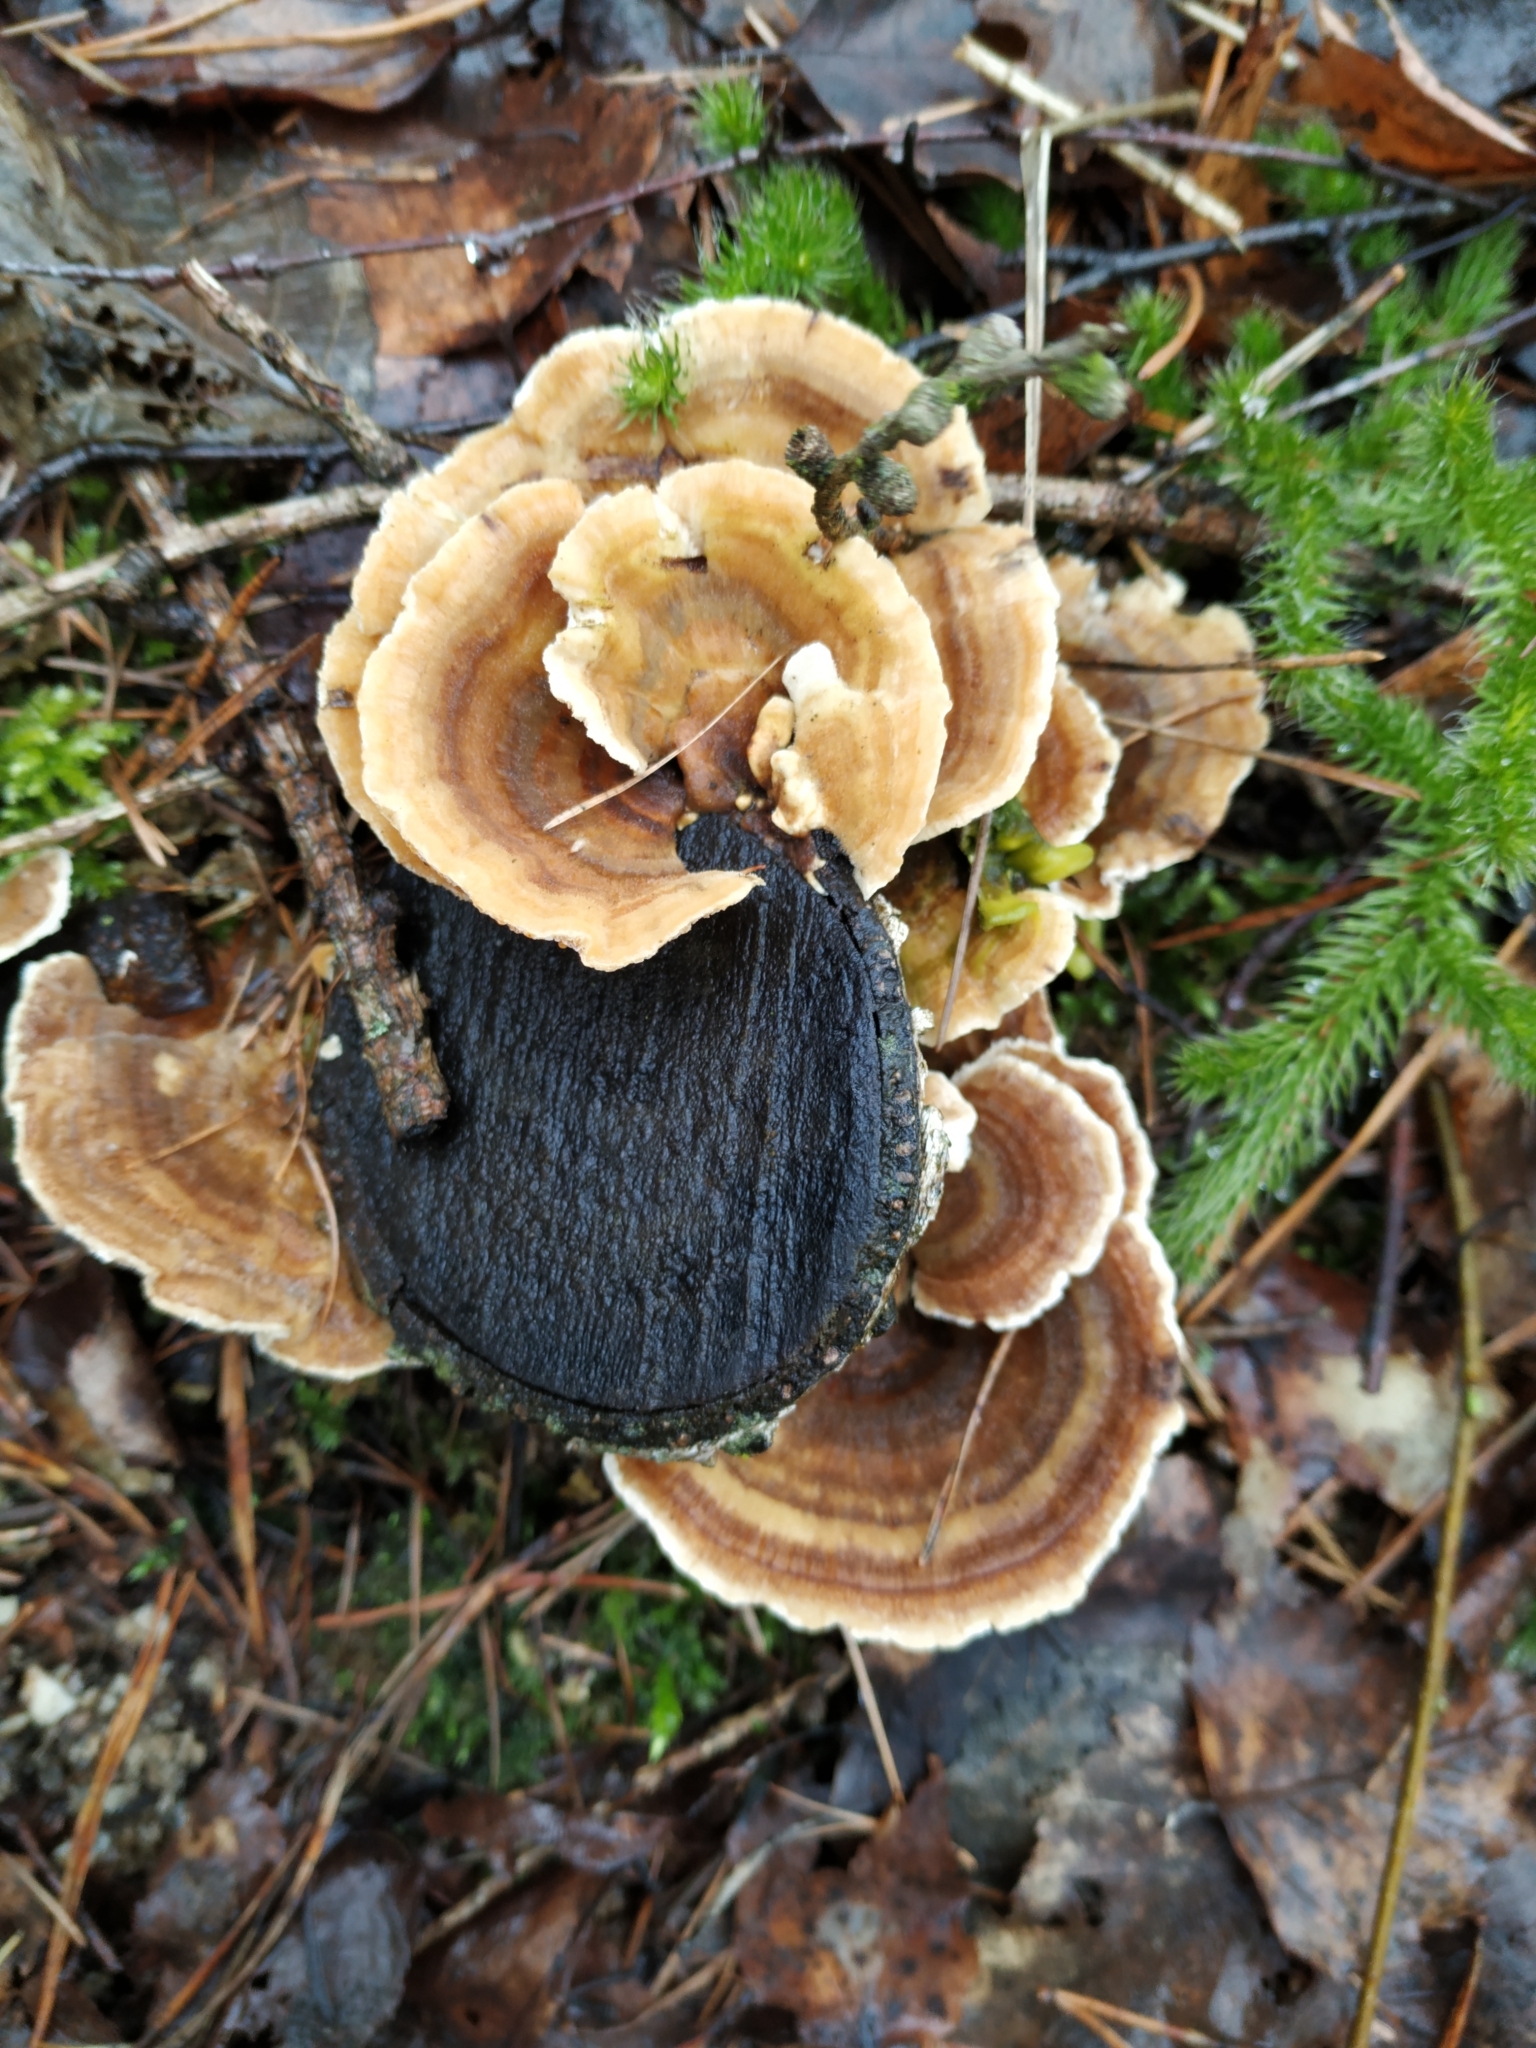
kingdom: Fungi
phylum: Basidiomycota
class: Agaricomycetes
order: Polyporales
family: Polyporaceae
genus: Trametes
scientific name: Trametes versicolor
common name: Turkeytail
